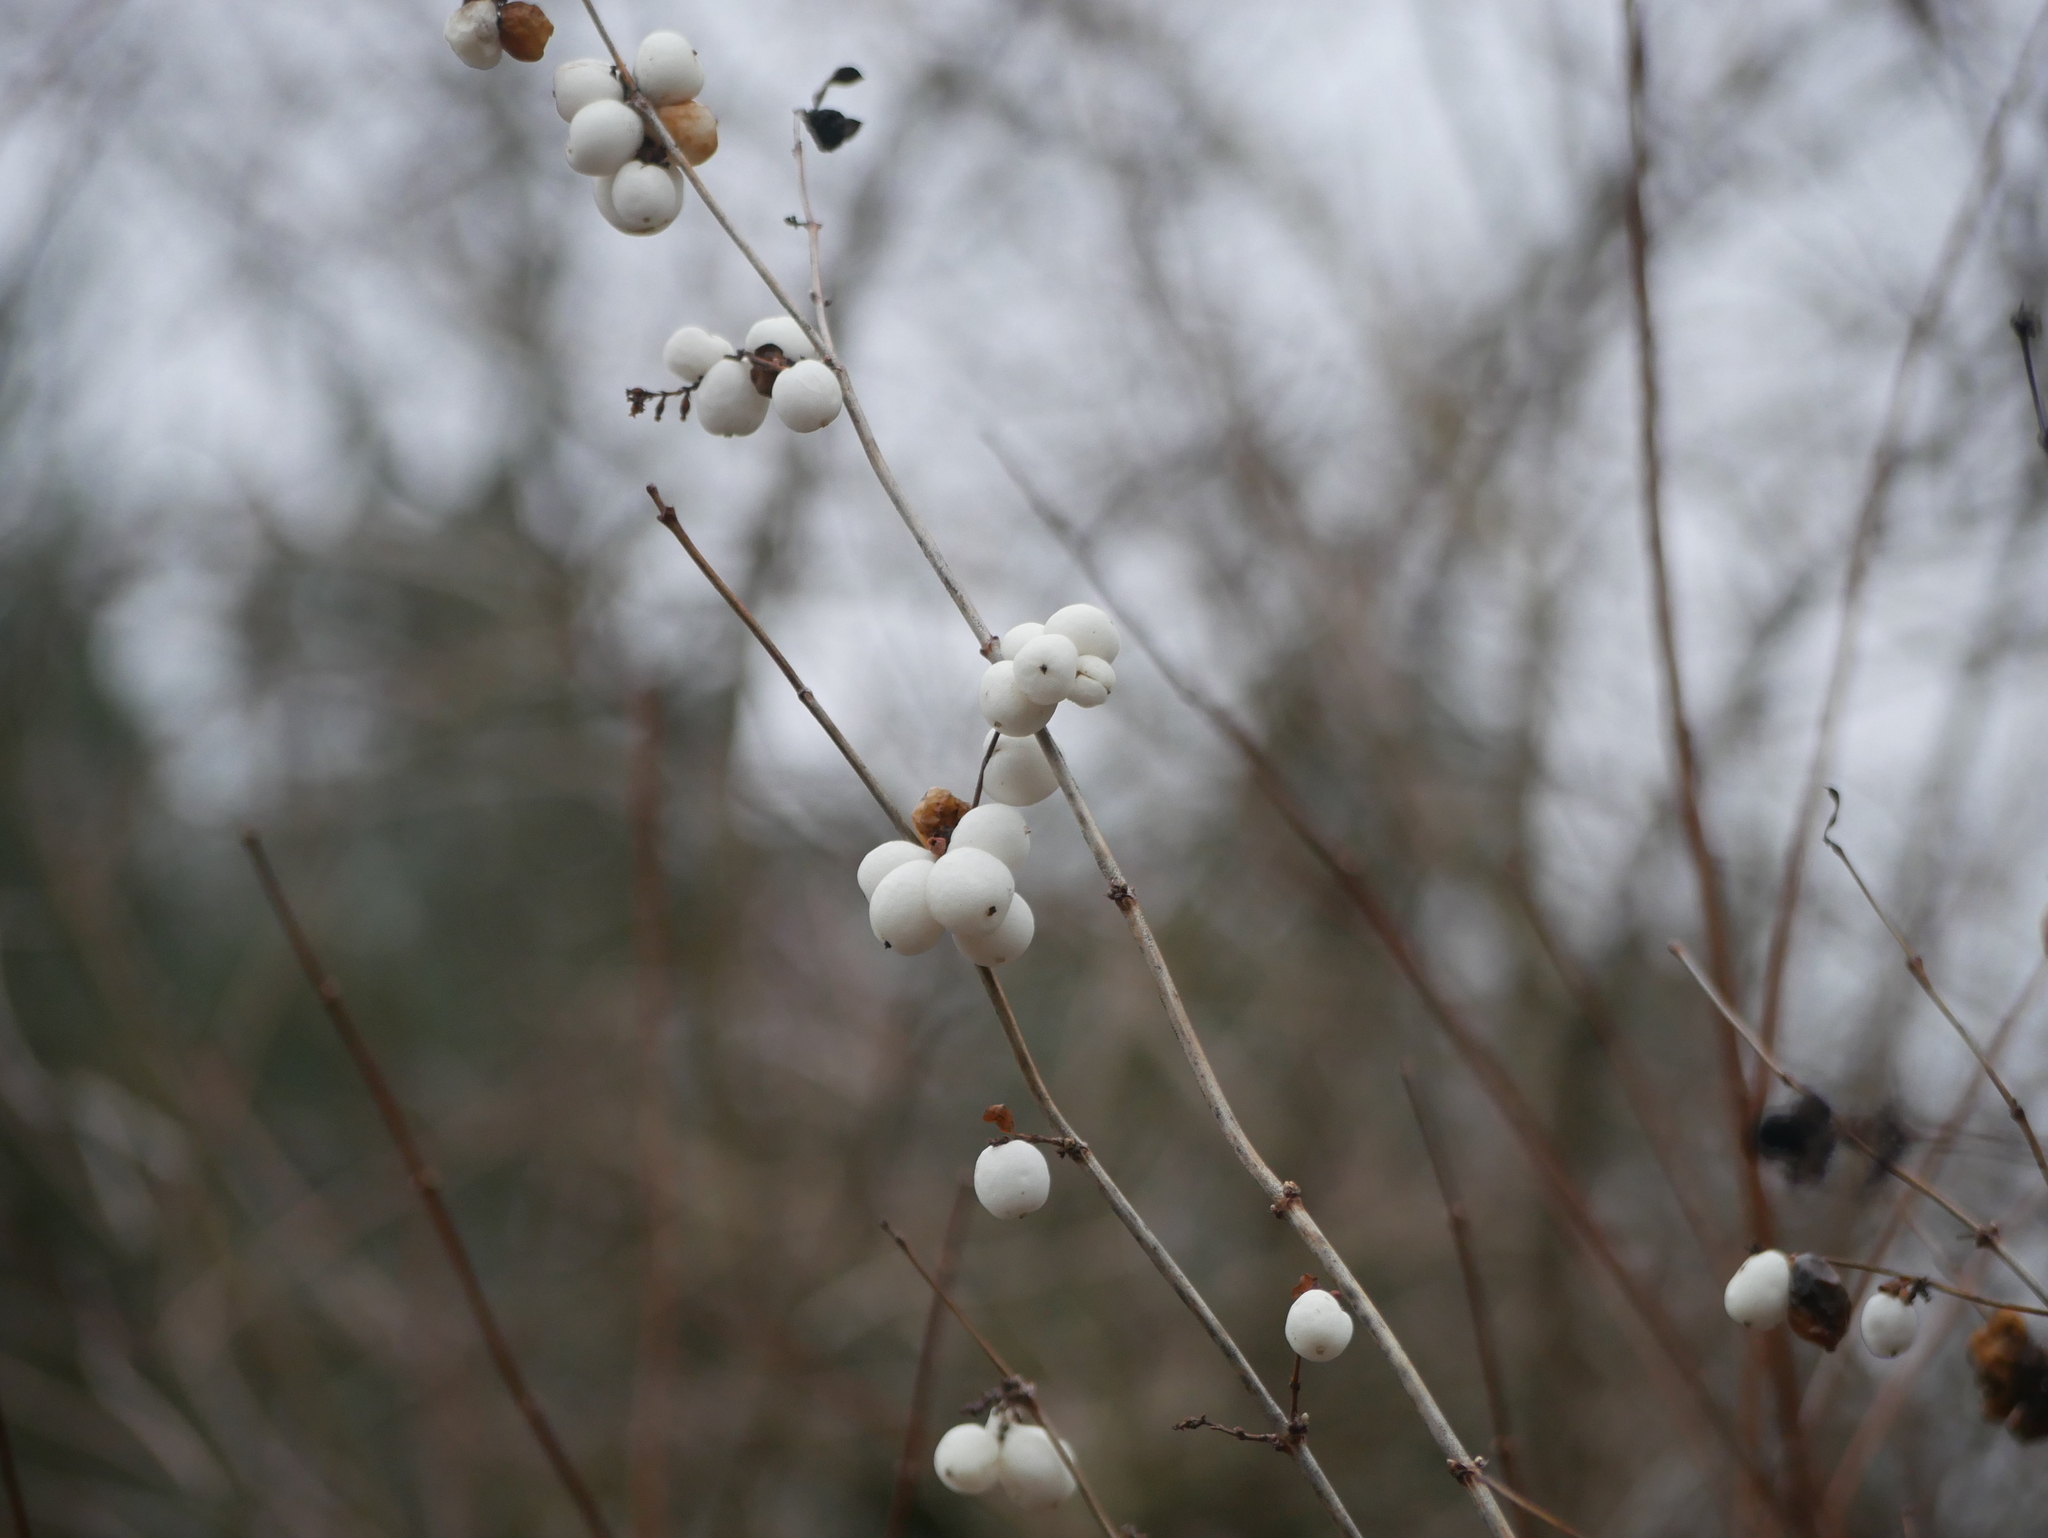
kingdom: Plantae
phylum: Tracheophyta
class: Magnoliopsida
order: Dipsacales
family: Caprifoliaceae
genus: Symphoricarpos
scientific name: Symphoricarpos albus
